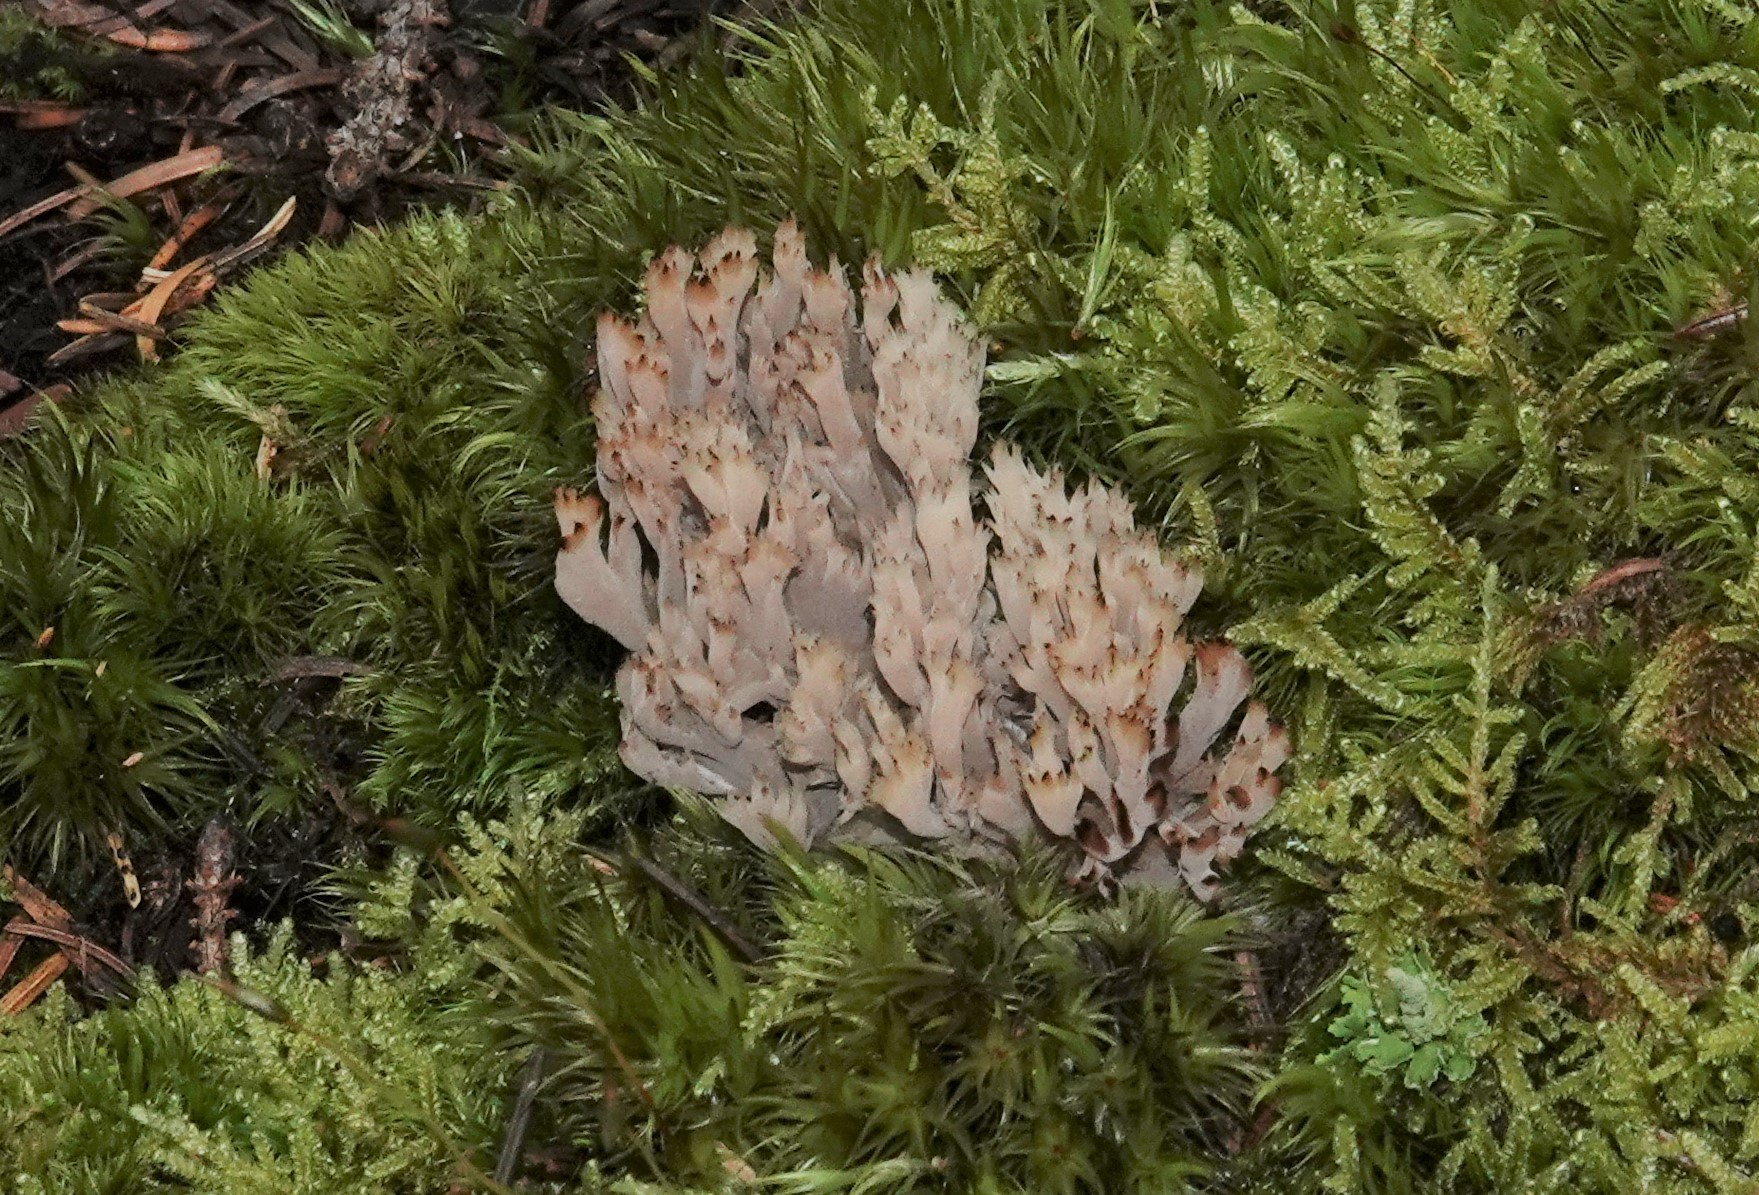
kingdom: Fungi
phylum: Basidiomycota
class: Agaricomycetes
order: Cantharellales
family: Hydnaceae
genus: Clavulina
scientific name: Clavulina cinerea
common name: Grey coral
